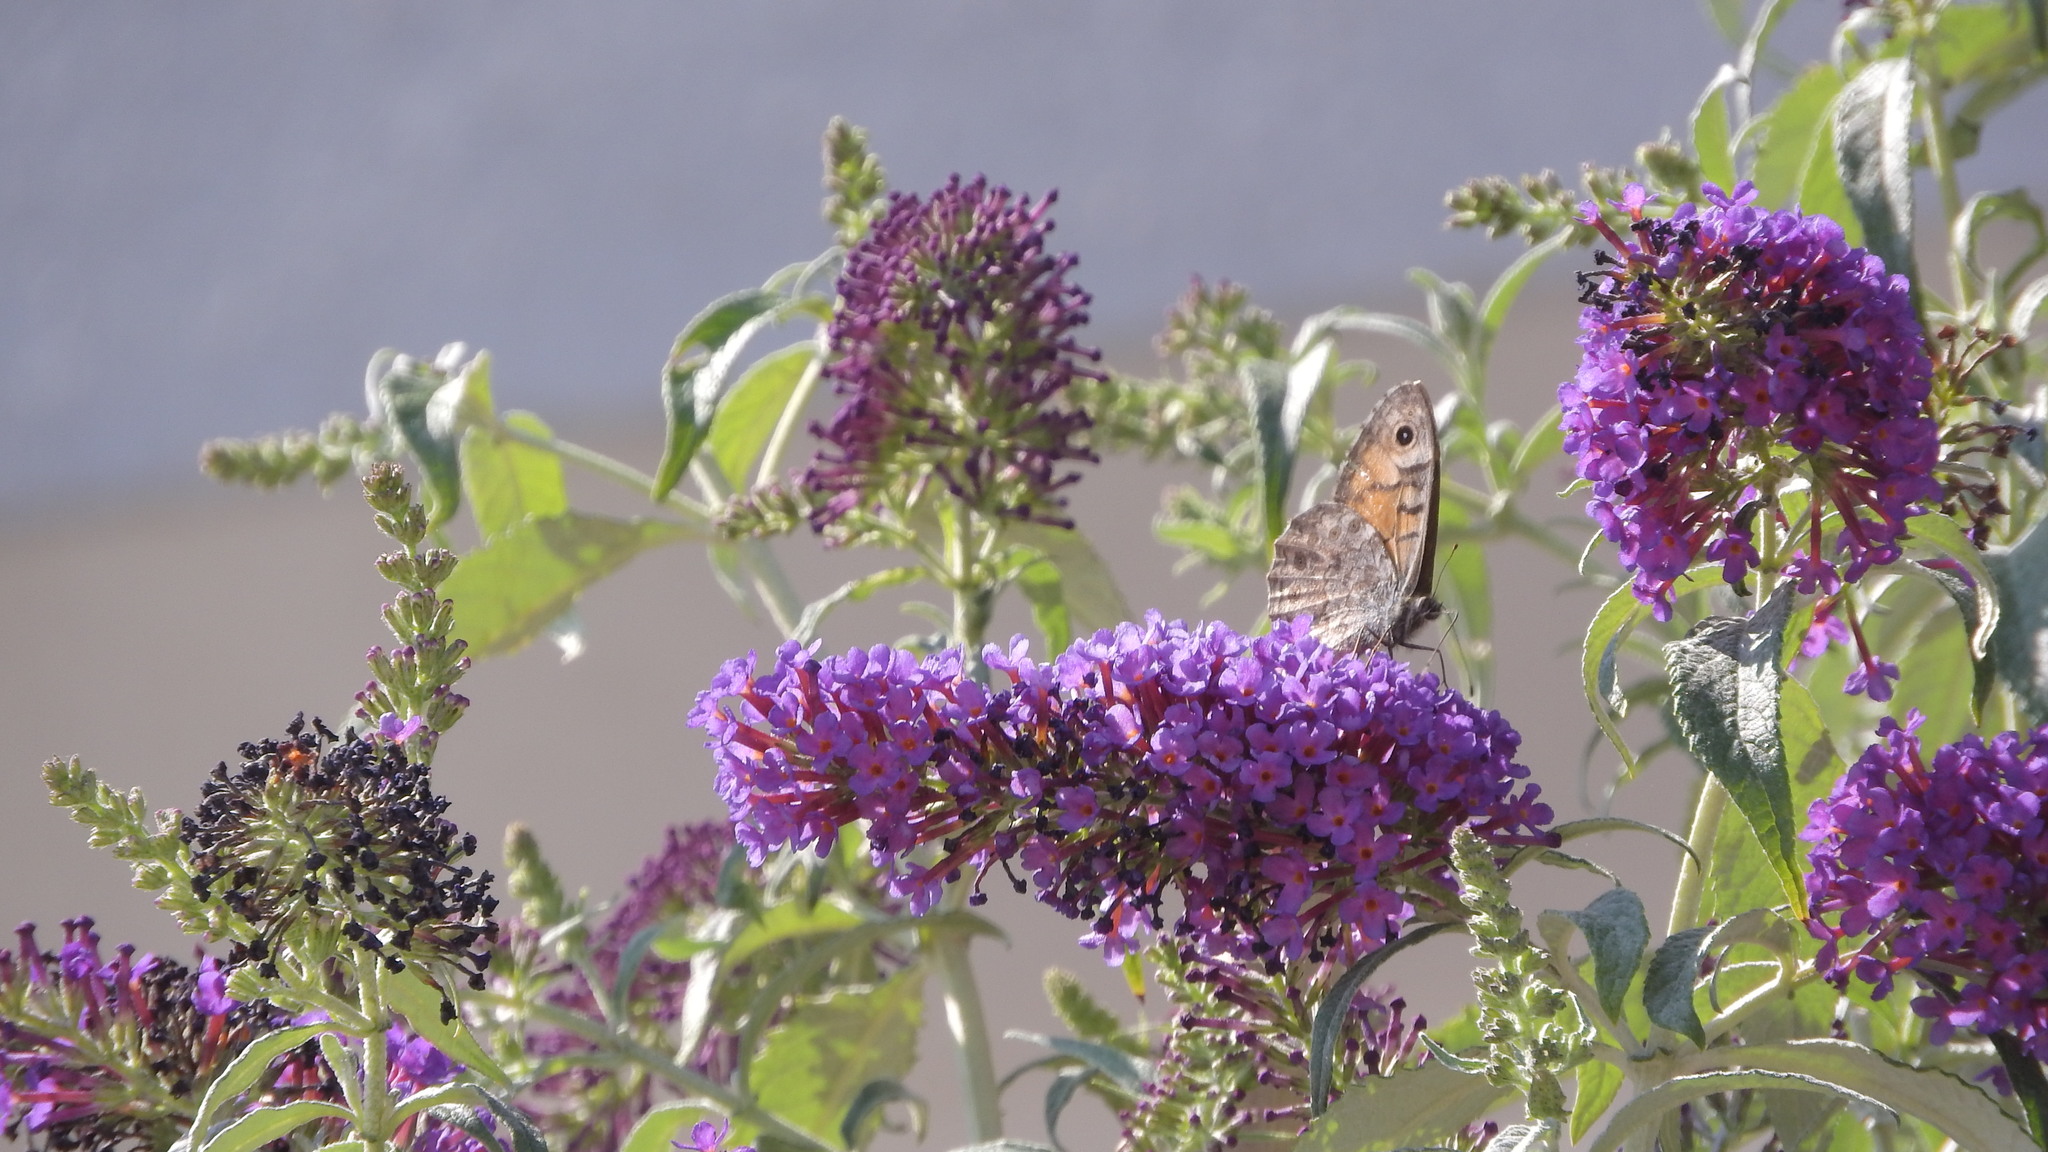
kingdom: Animalia
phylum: Arthropoda
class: Insecta
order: Lepidoptera
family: Nymphalidae
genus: Pararge
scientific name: Pararge Lasiommata megera
